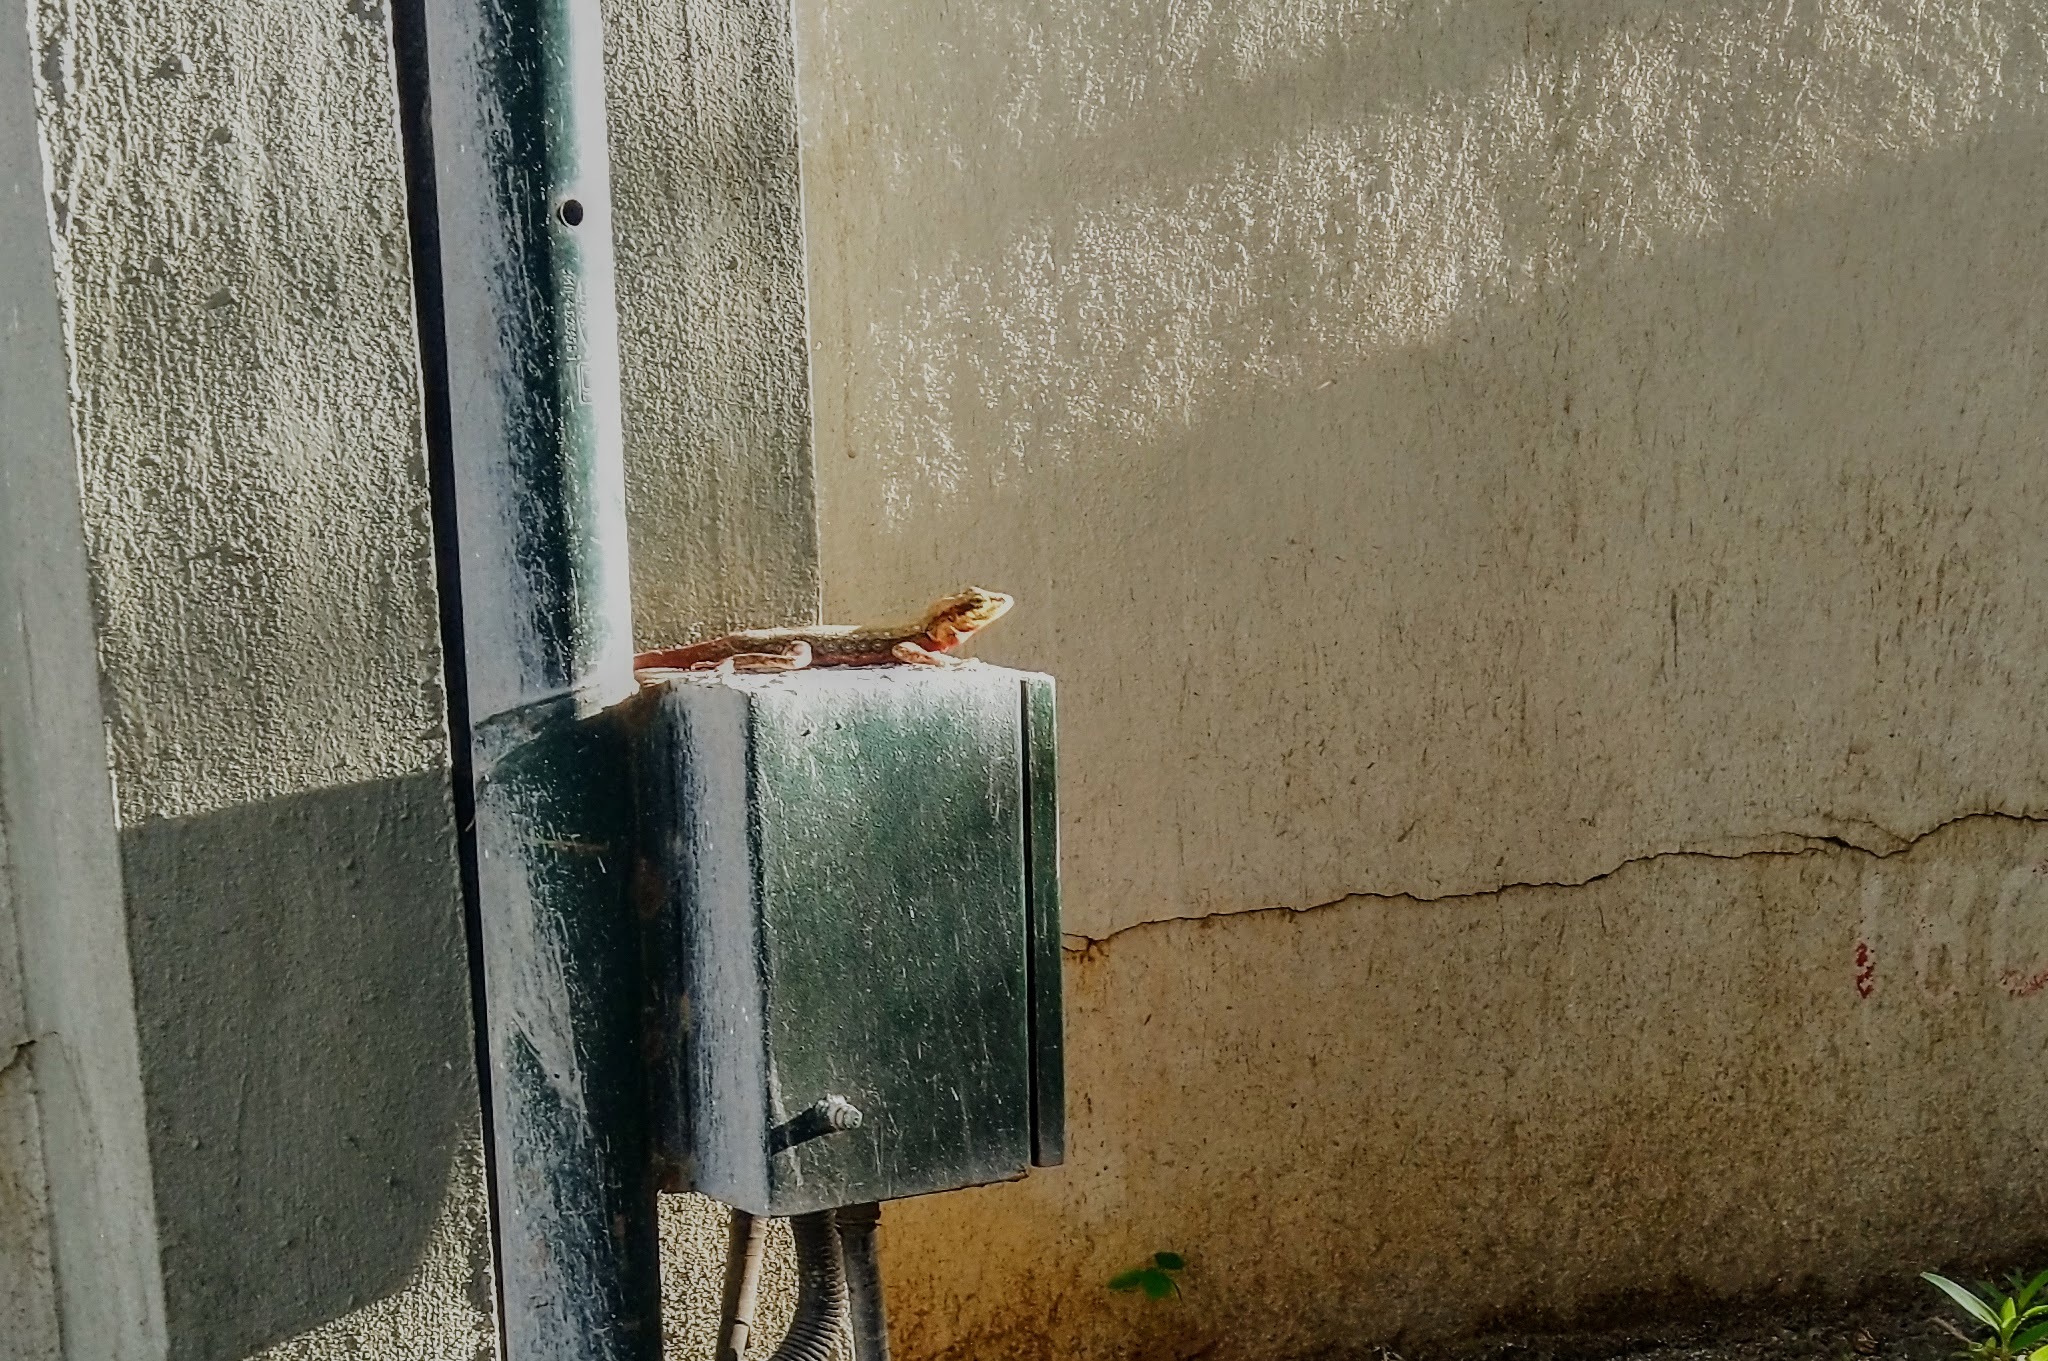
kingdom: Animalia
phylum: Chordata
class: Squamata
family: Agamidae
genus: Psammophilus
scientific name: Psammophilus dorsalis
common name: South indian rock agama
